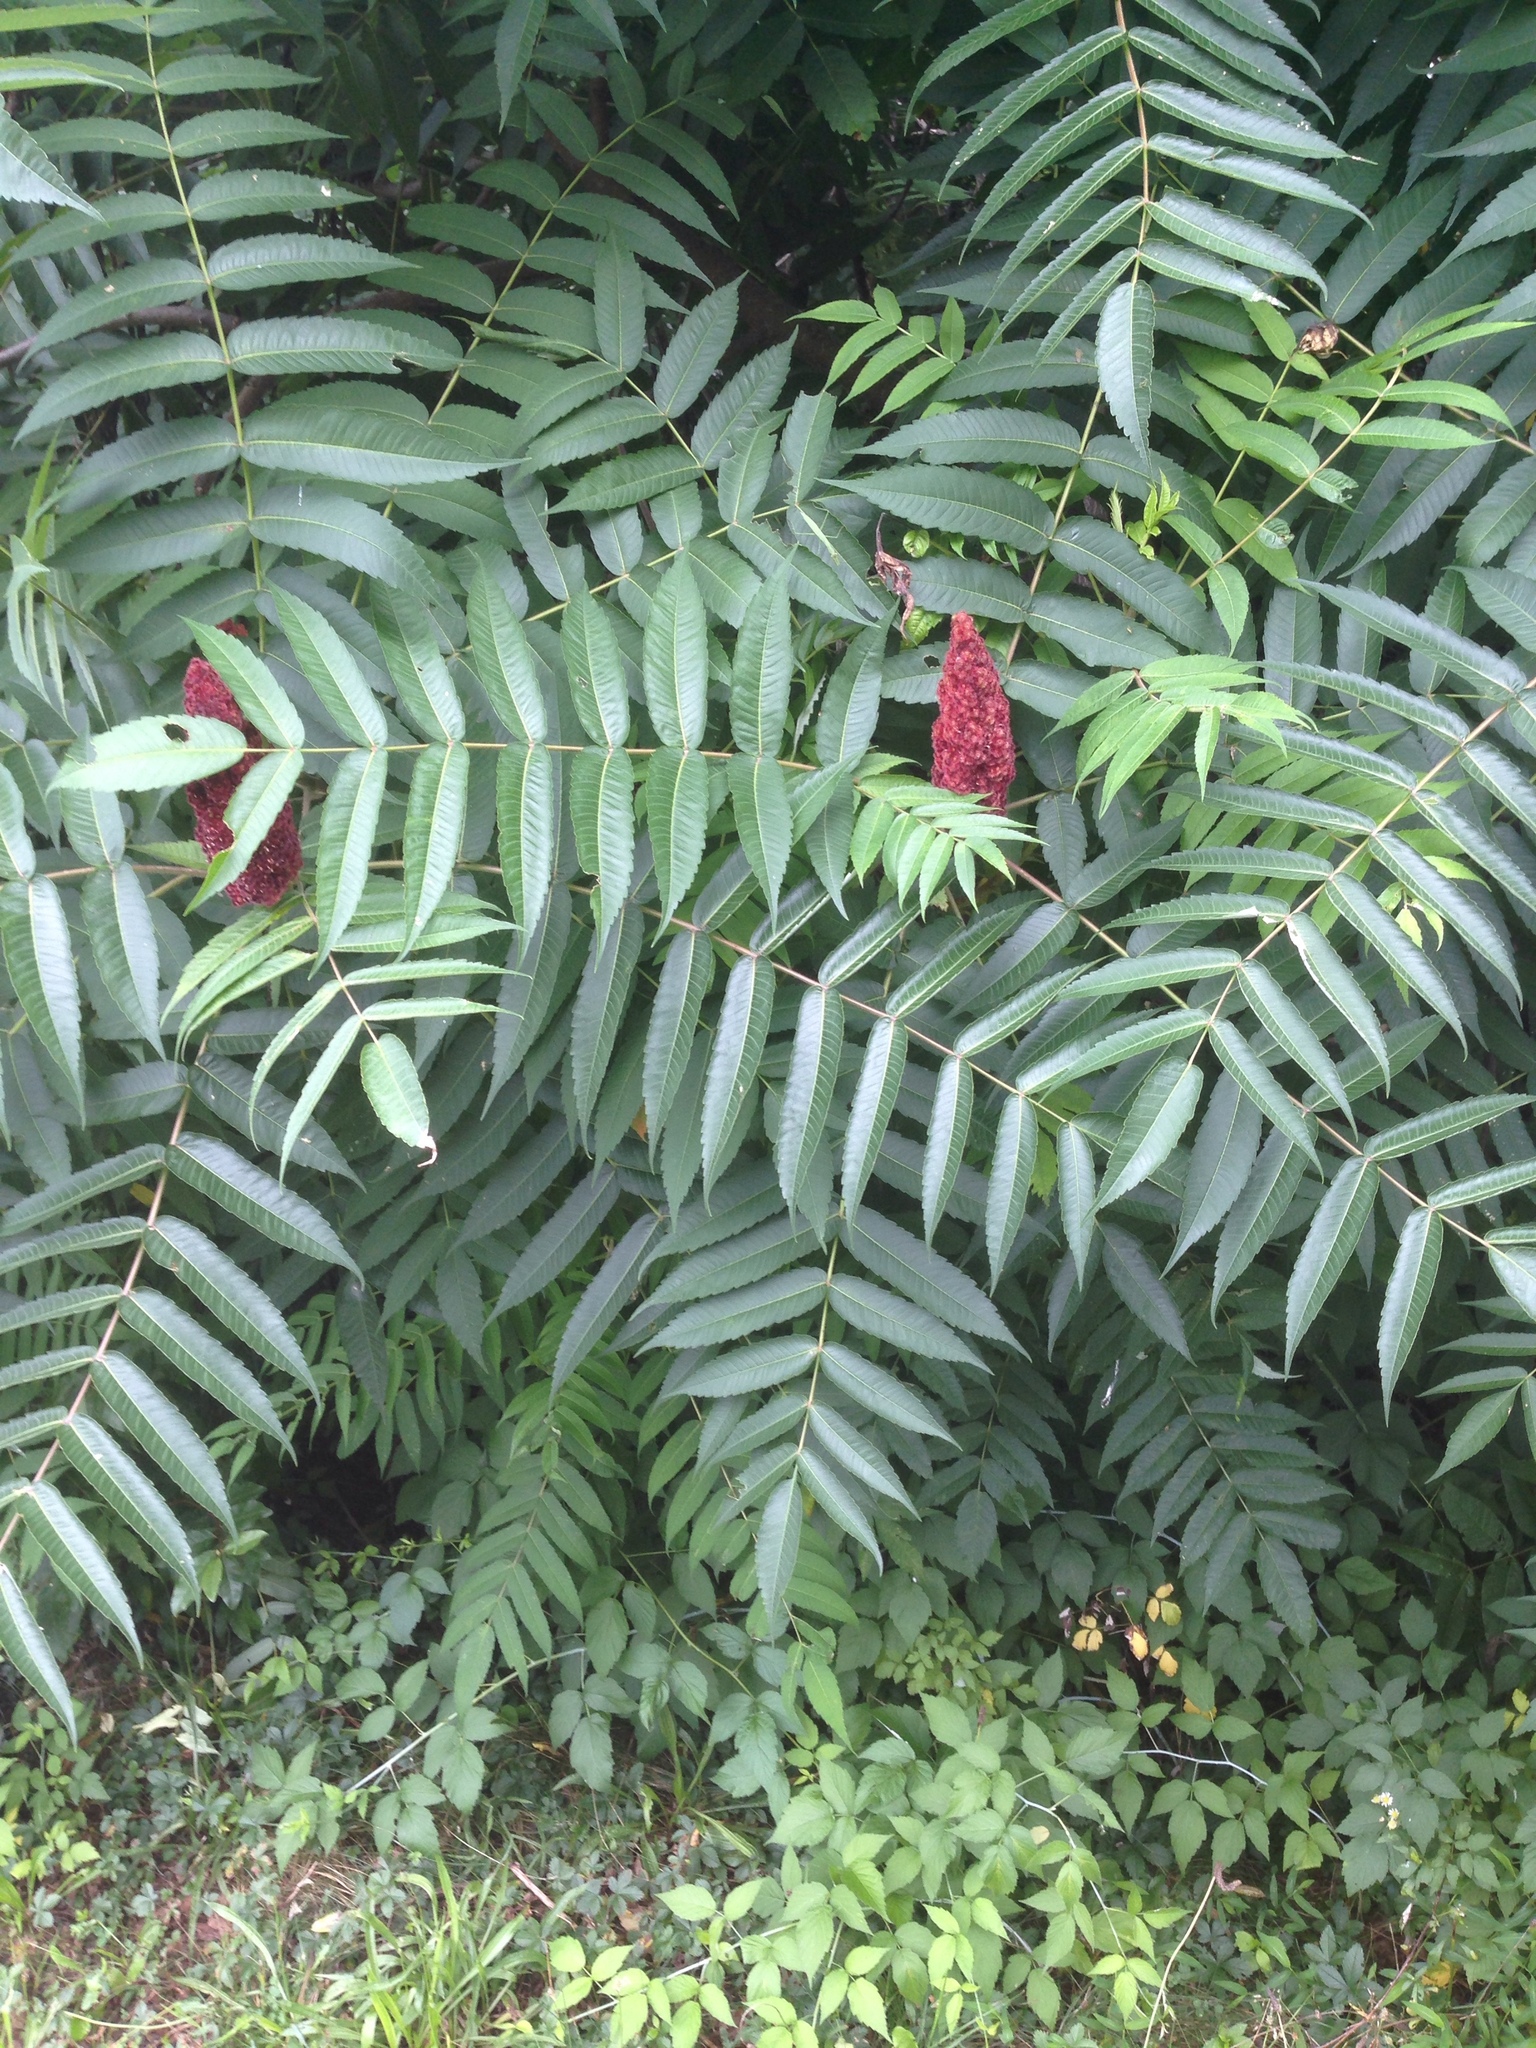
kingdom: Plantae
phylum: Tracheophyta
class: Magnoliopsida
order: Sapindales
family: Anacardiaceae
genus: Rhus
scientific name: Rhus typhina
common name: Staghorn sumac
